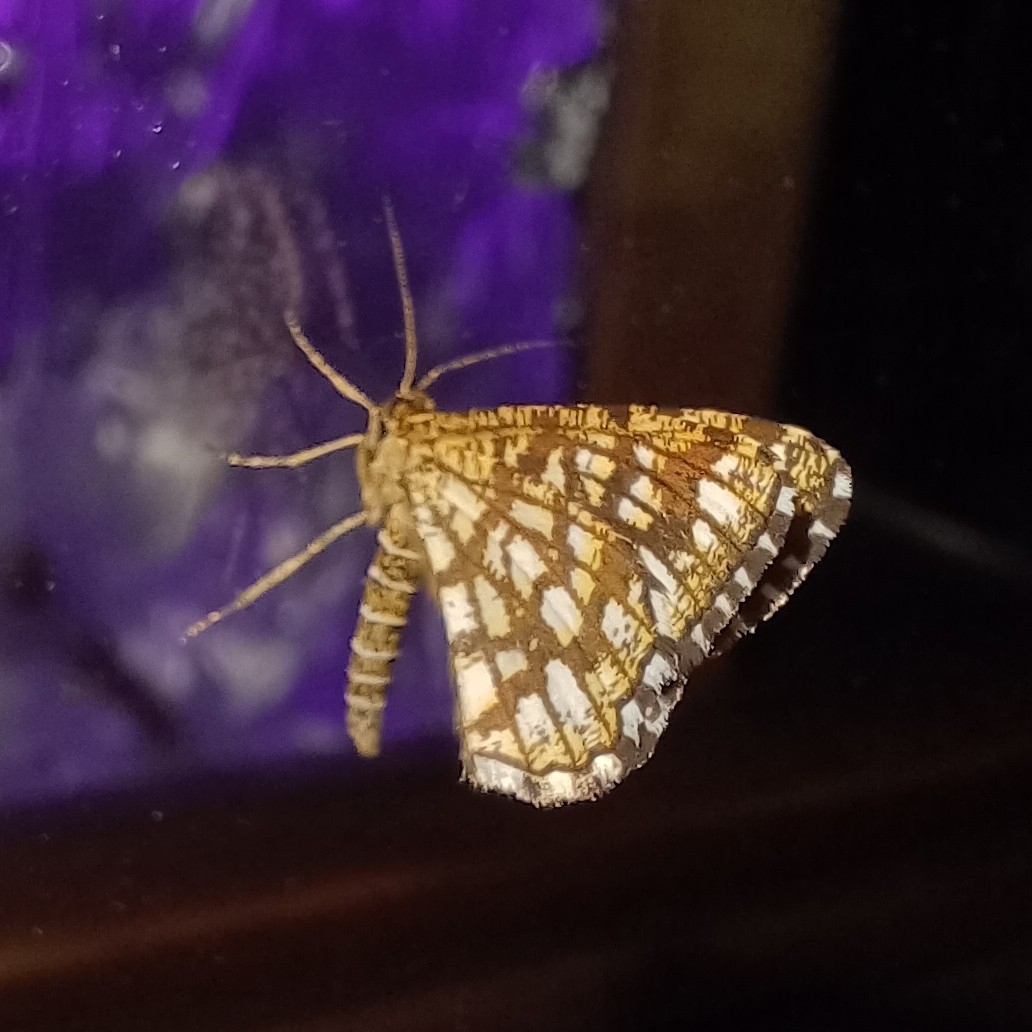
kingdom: Animalia
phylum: Arthropoda
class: Insecta
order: Lepidoptera
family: Geometridae
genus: Chiasmia
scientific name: Chiasmia clathrata
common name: Latticed heath
